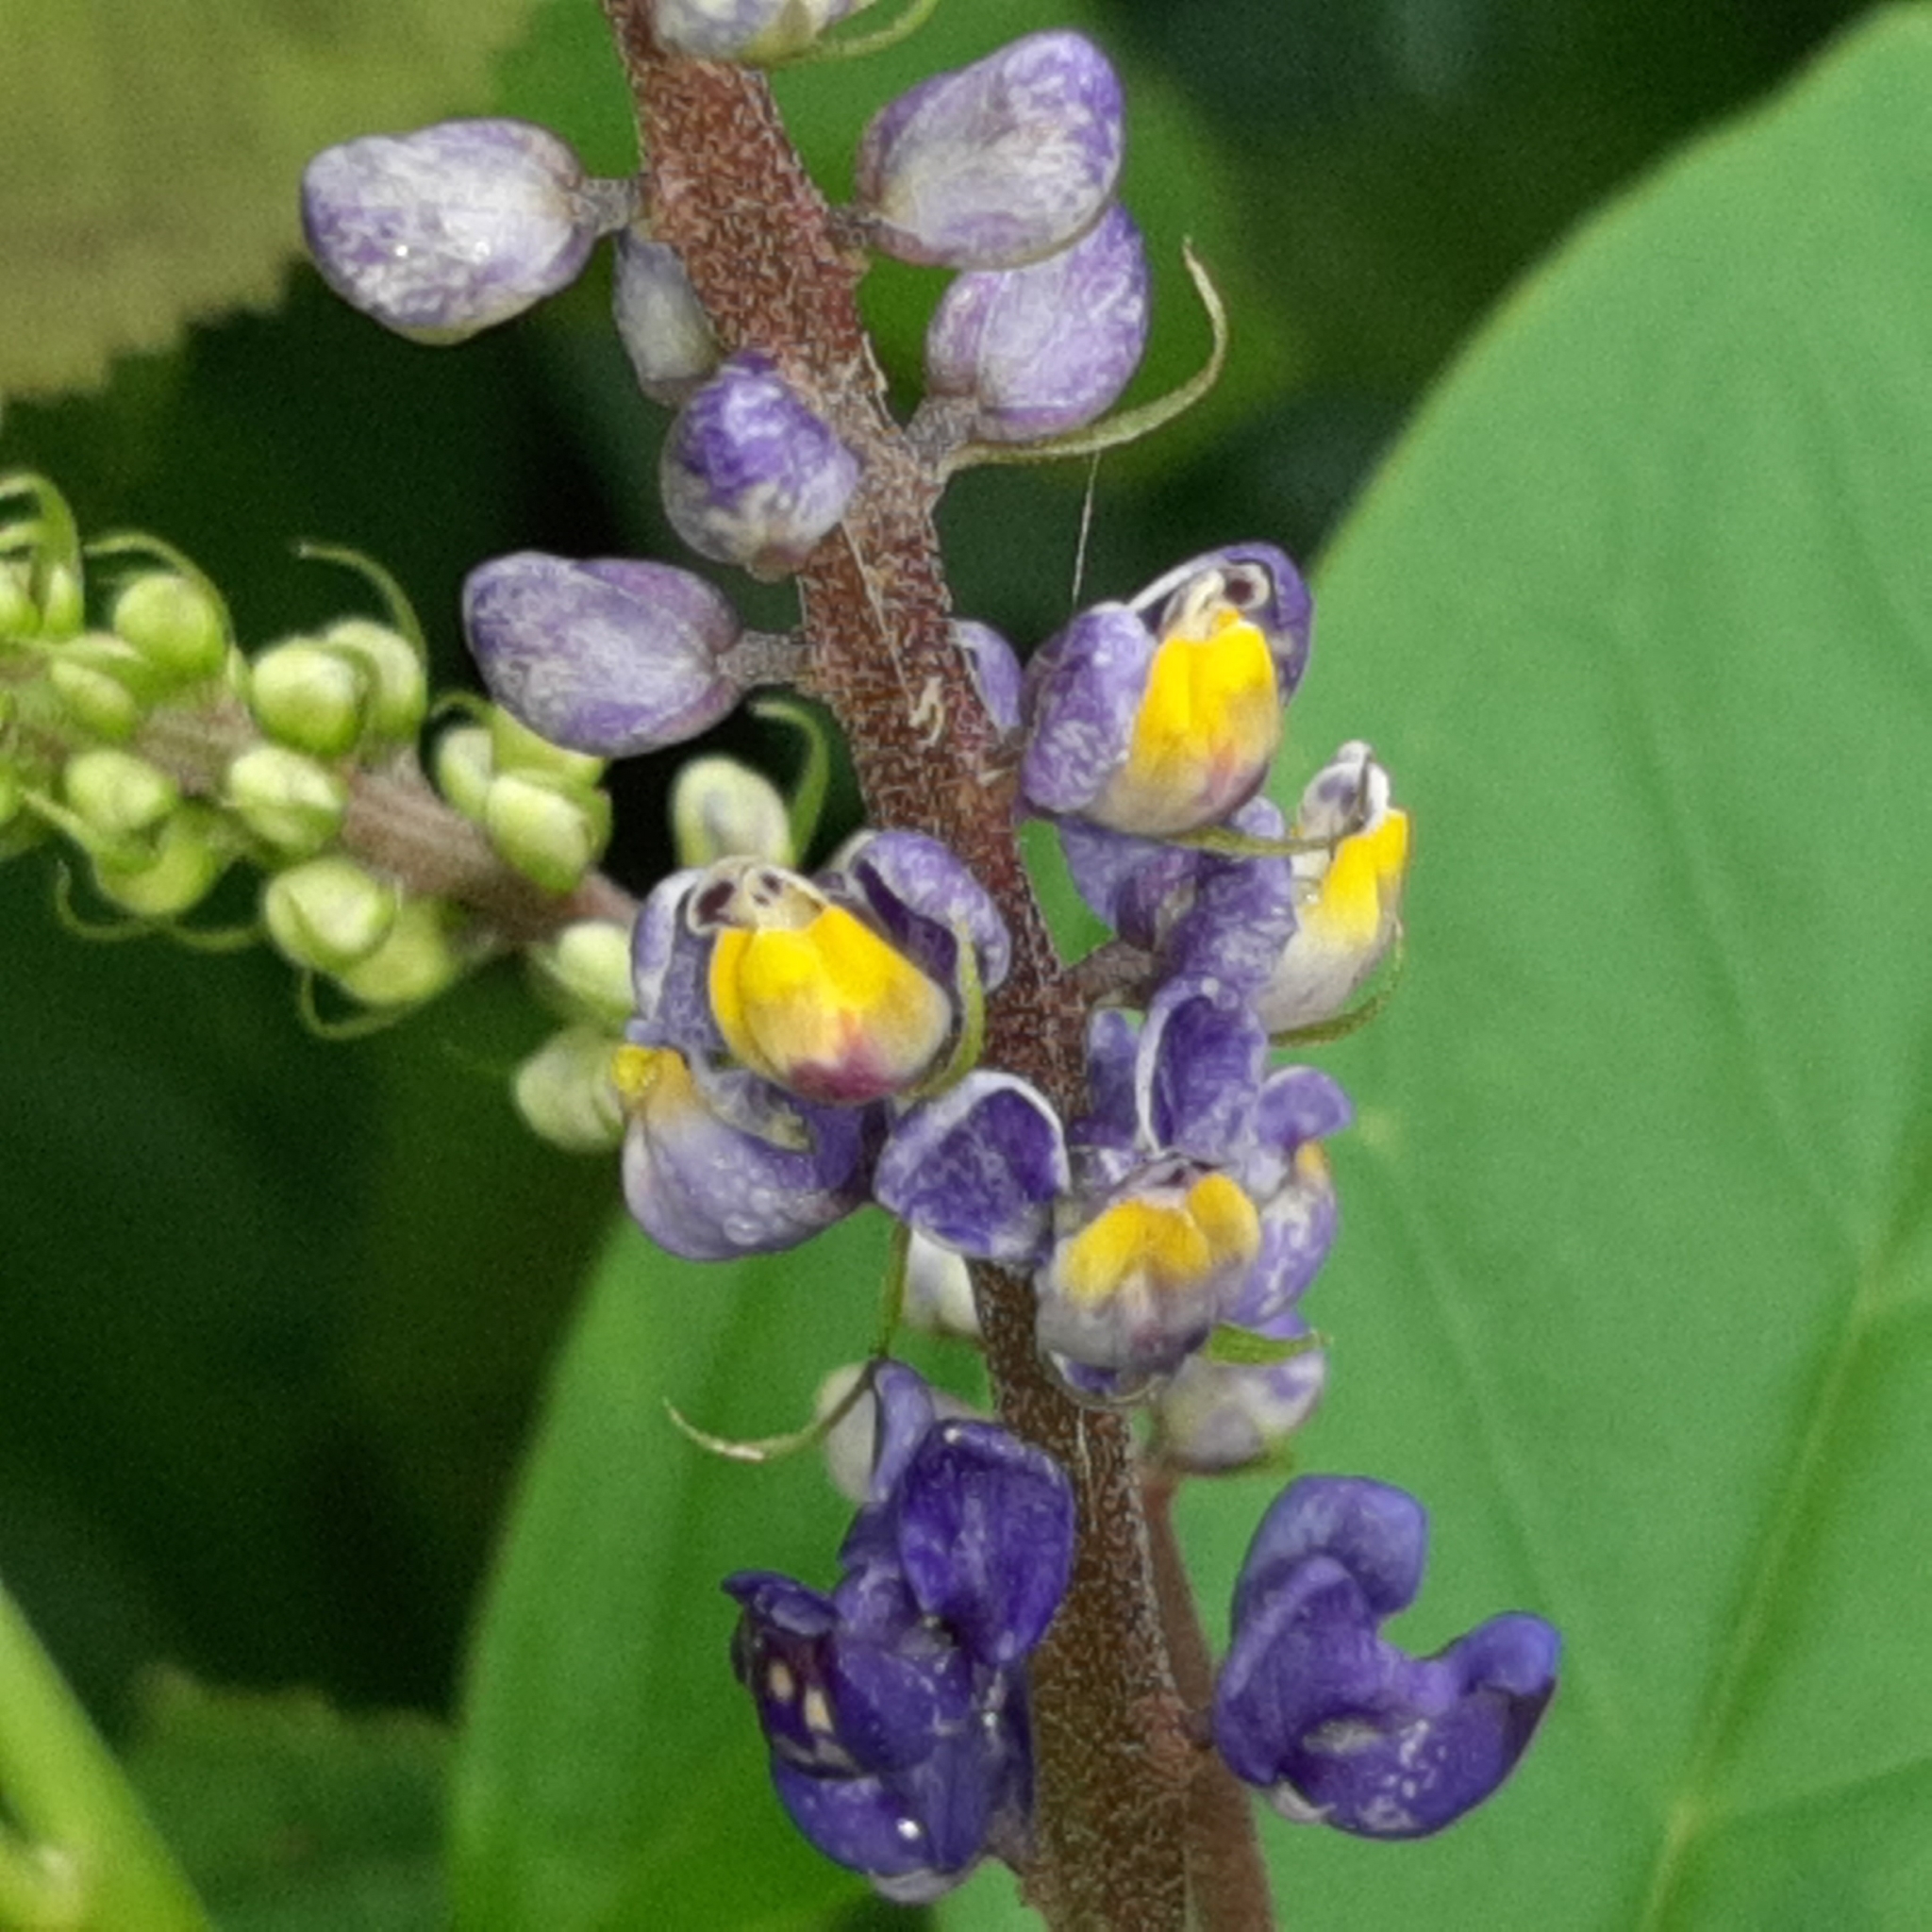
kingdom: Plantae
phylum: Tracheophyta
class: Magnoliopsida
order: Fabales
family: Polygalaceae
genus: Monnina
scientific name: Monnina sylvicola
